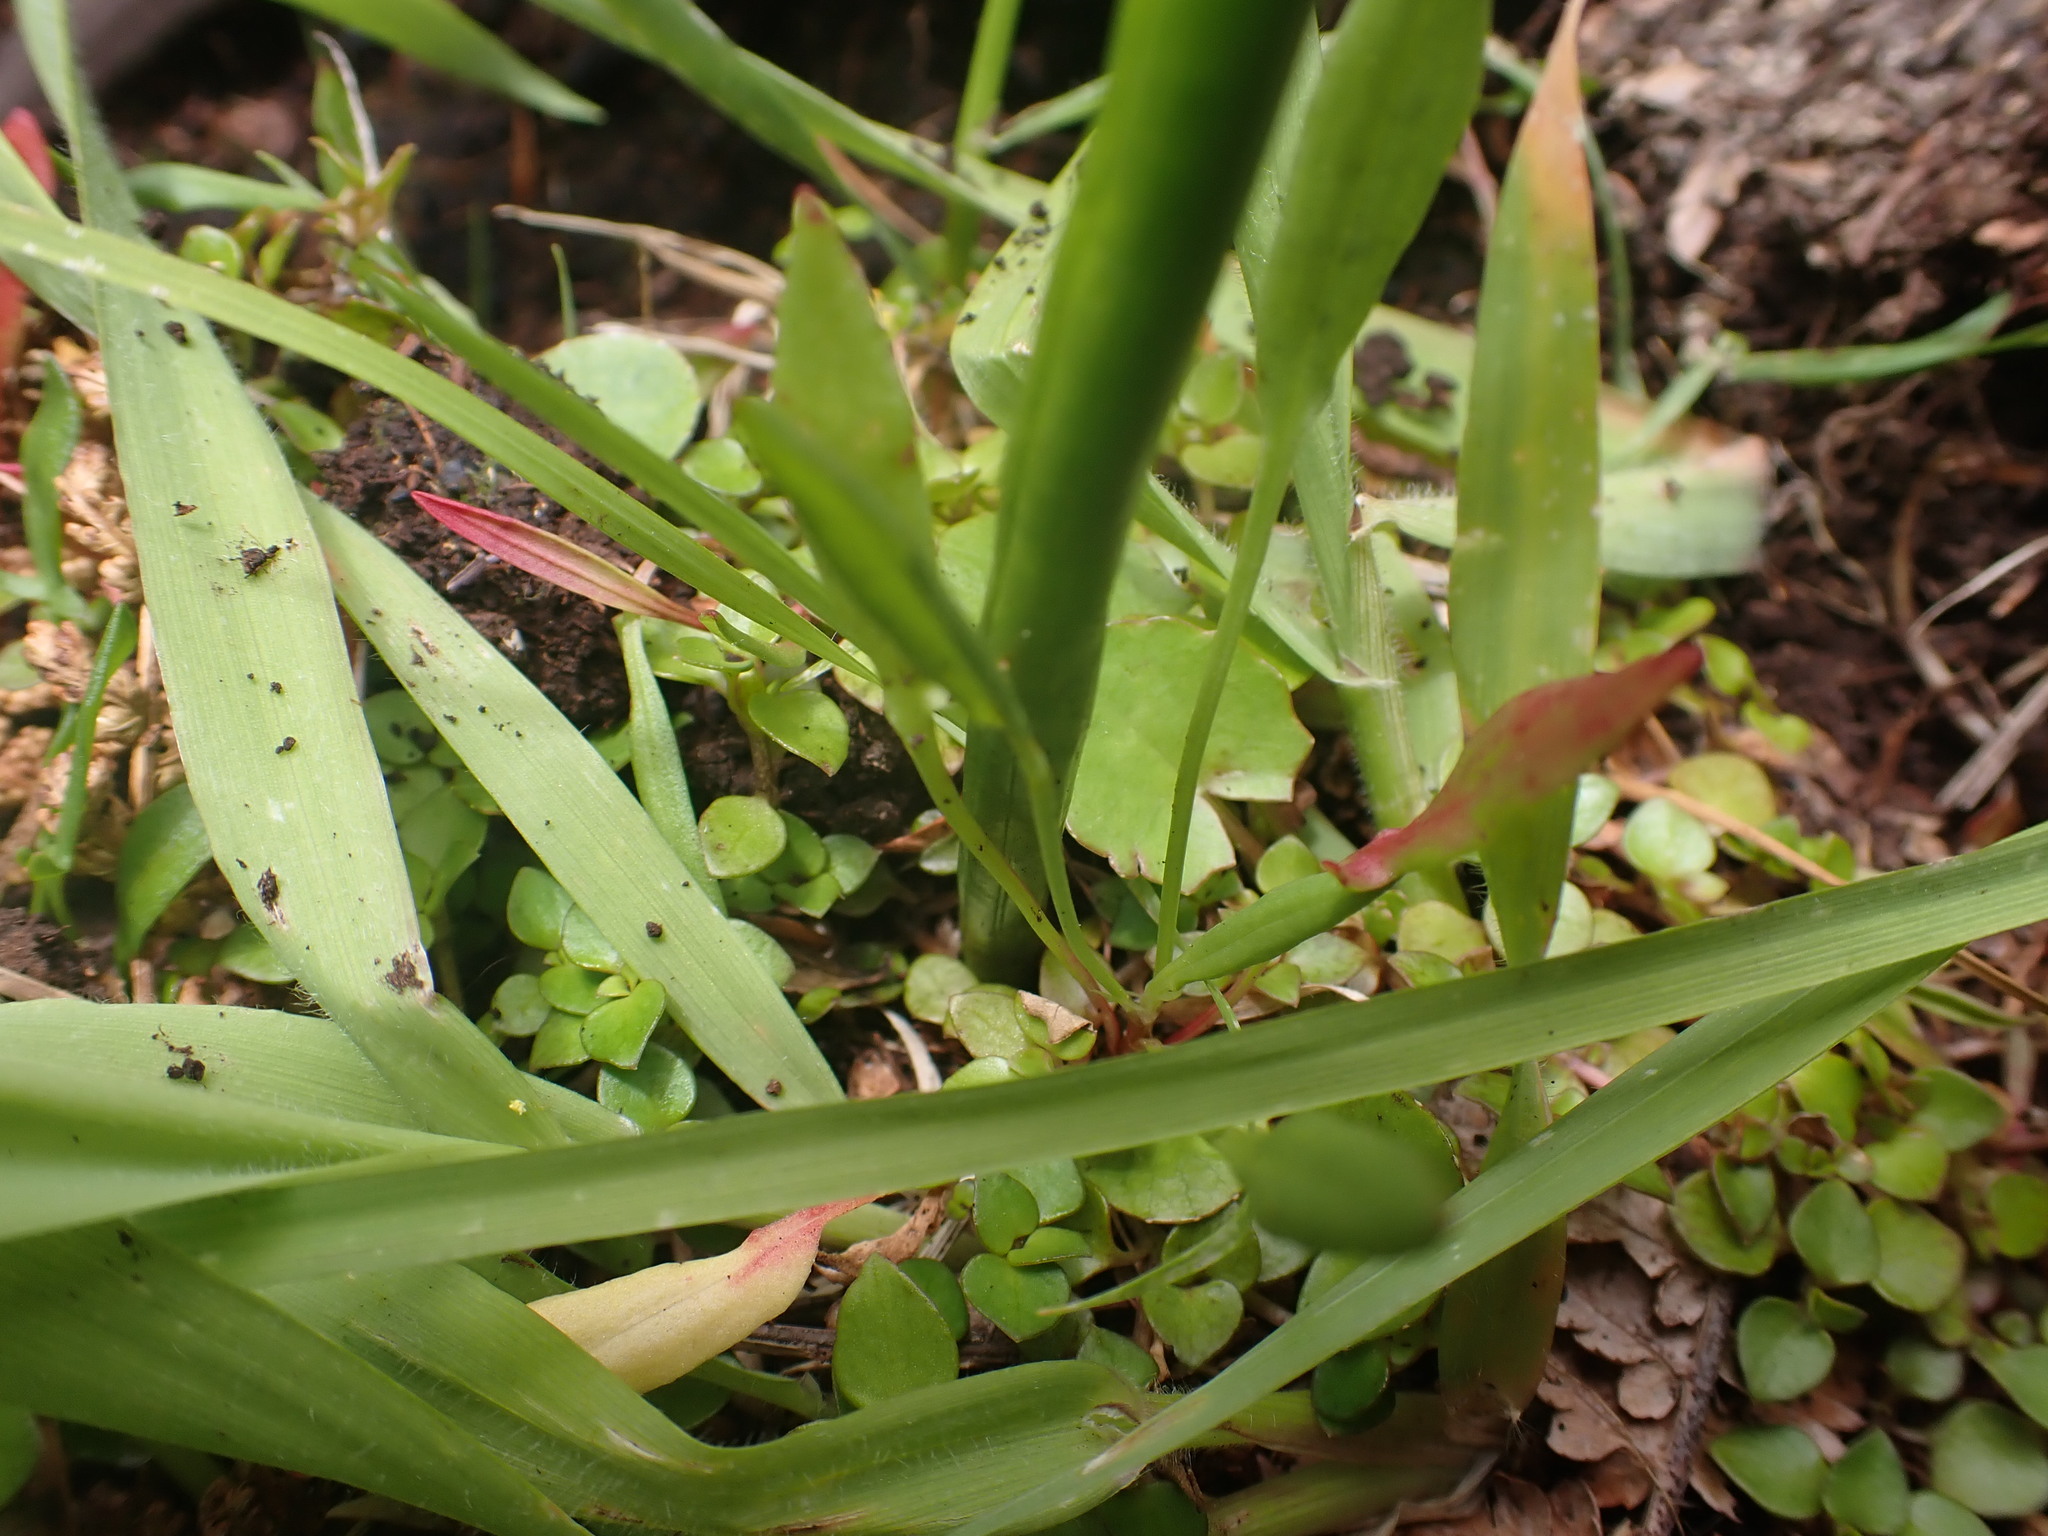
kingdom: Plantae
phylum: Tracheophyta
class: Liliopsida
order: Asparagales
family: Orchidaceae
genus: Prasophyllum
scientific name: Prasophyllum colensoi
